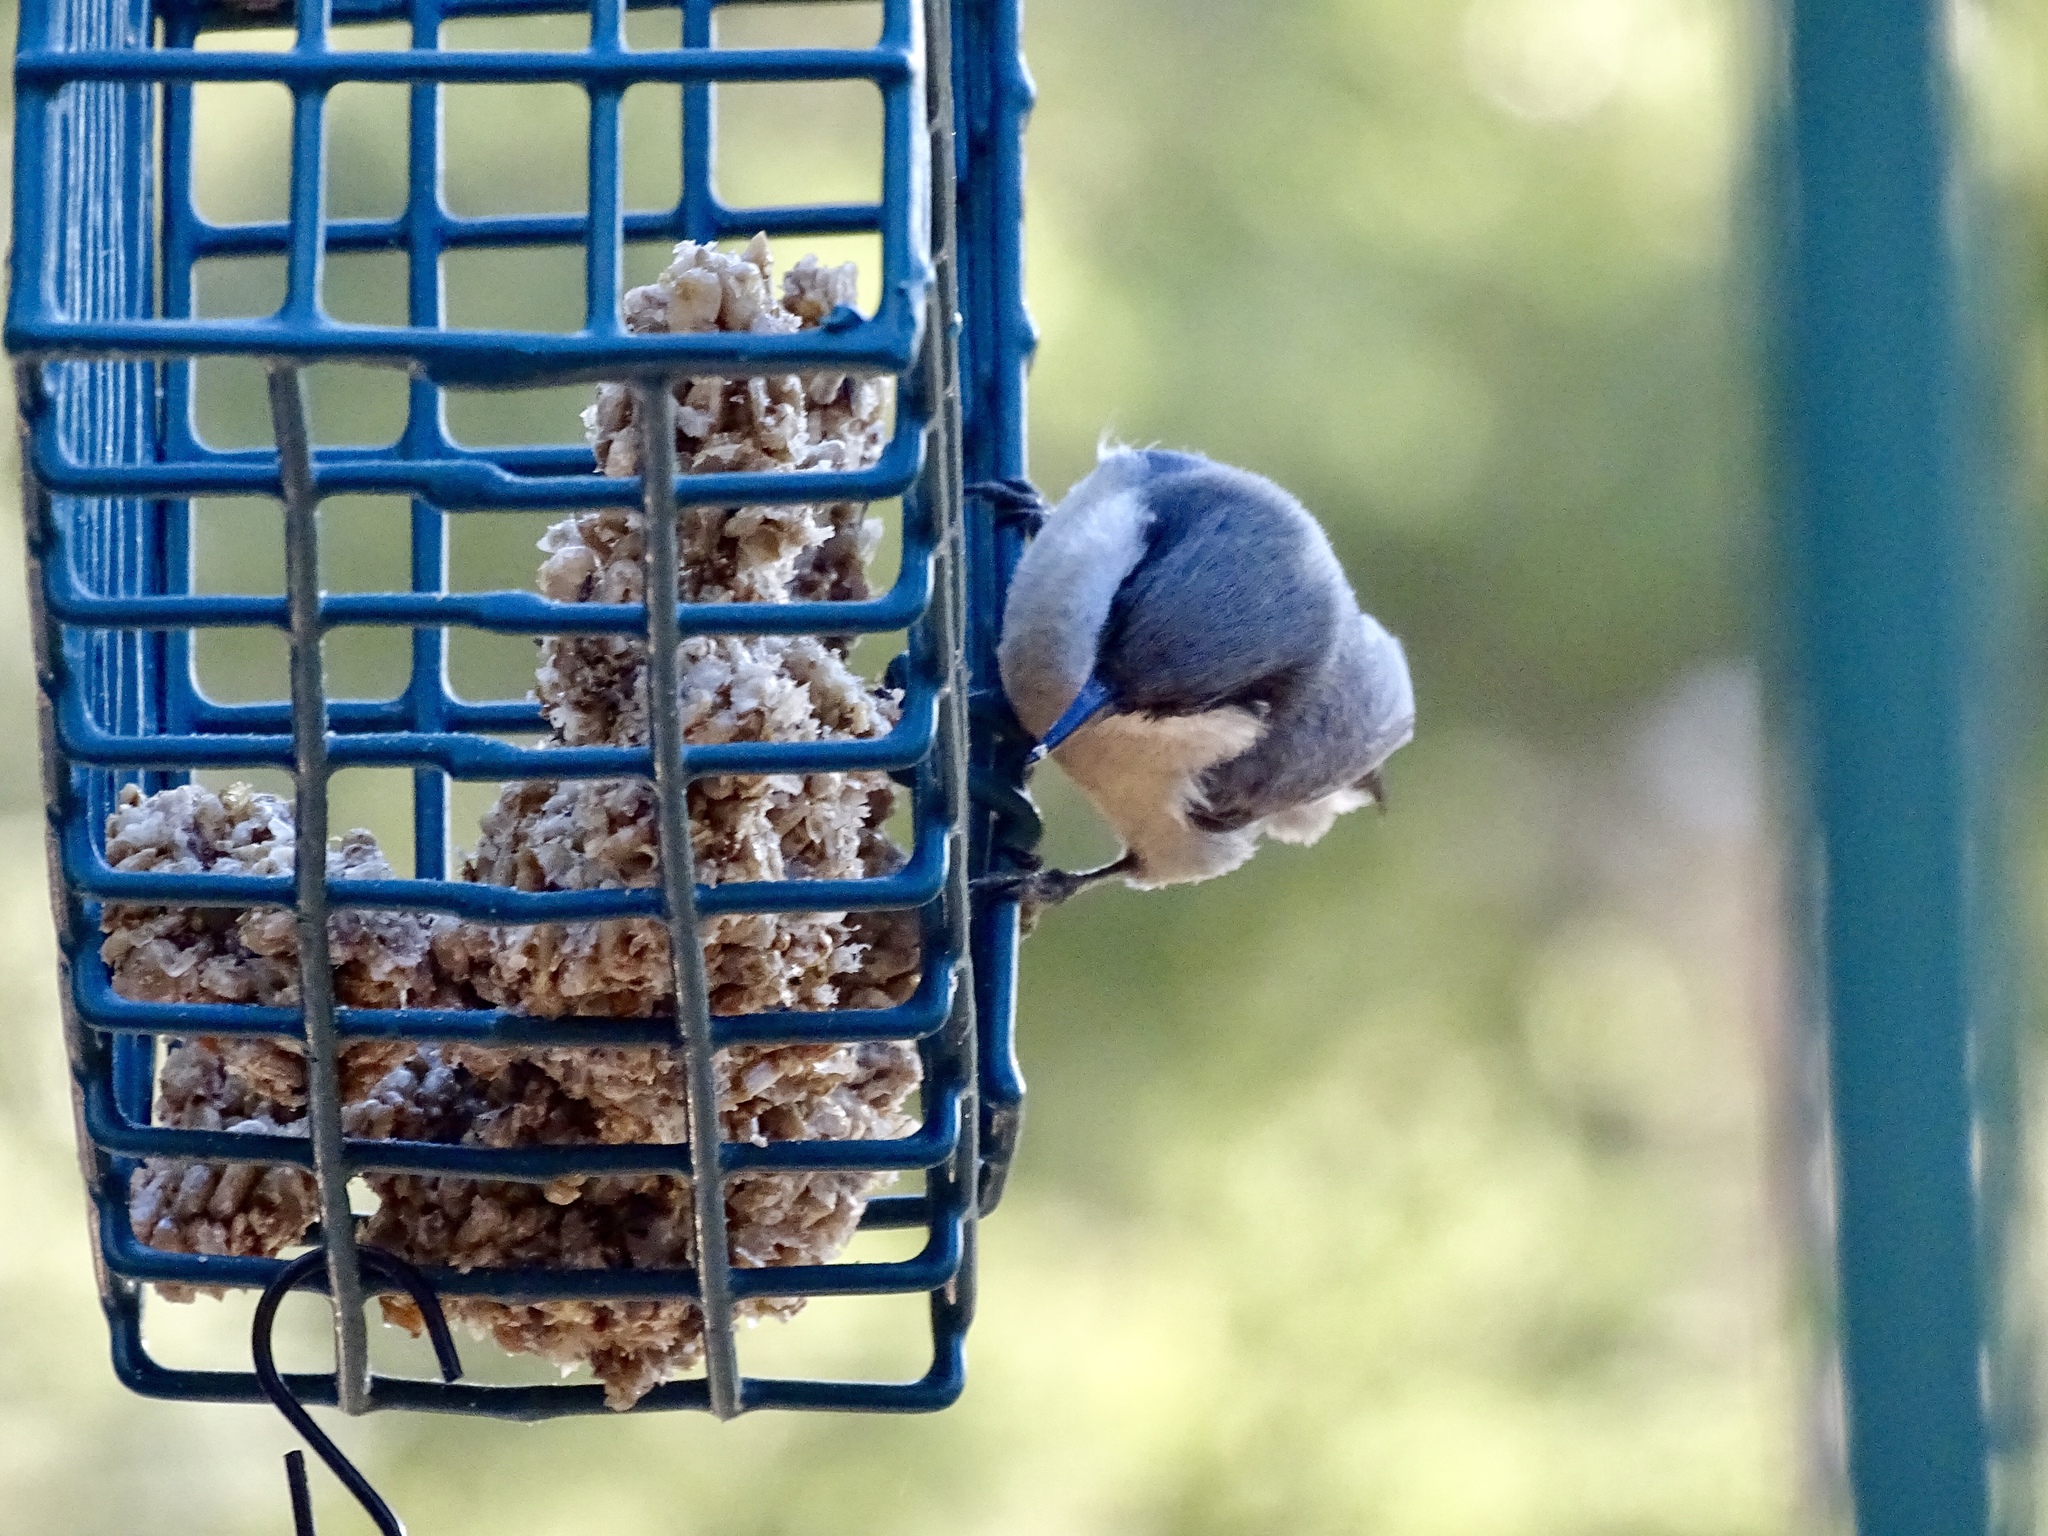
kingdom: Animalia
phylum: Chordata
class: Aves
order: Passeriformes
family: Sittidae
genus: Sitta
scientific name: Sitta pygmaea
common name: Pygmy nuthatch
